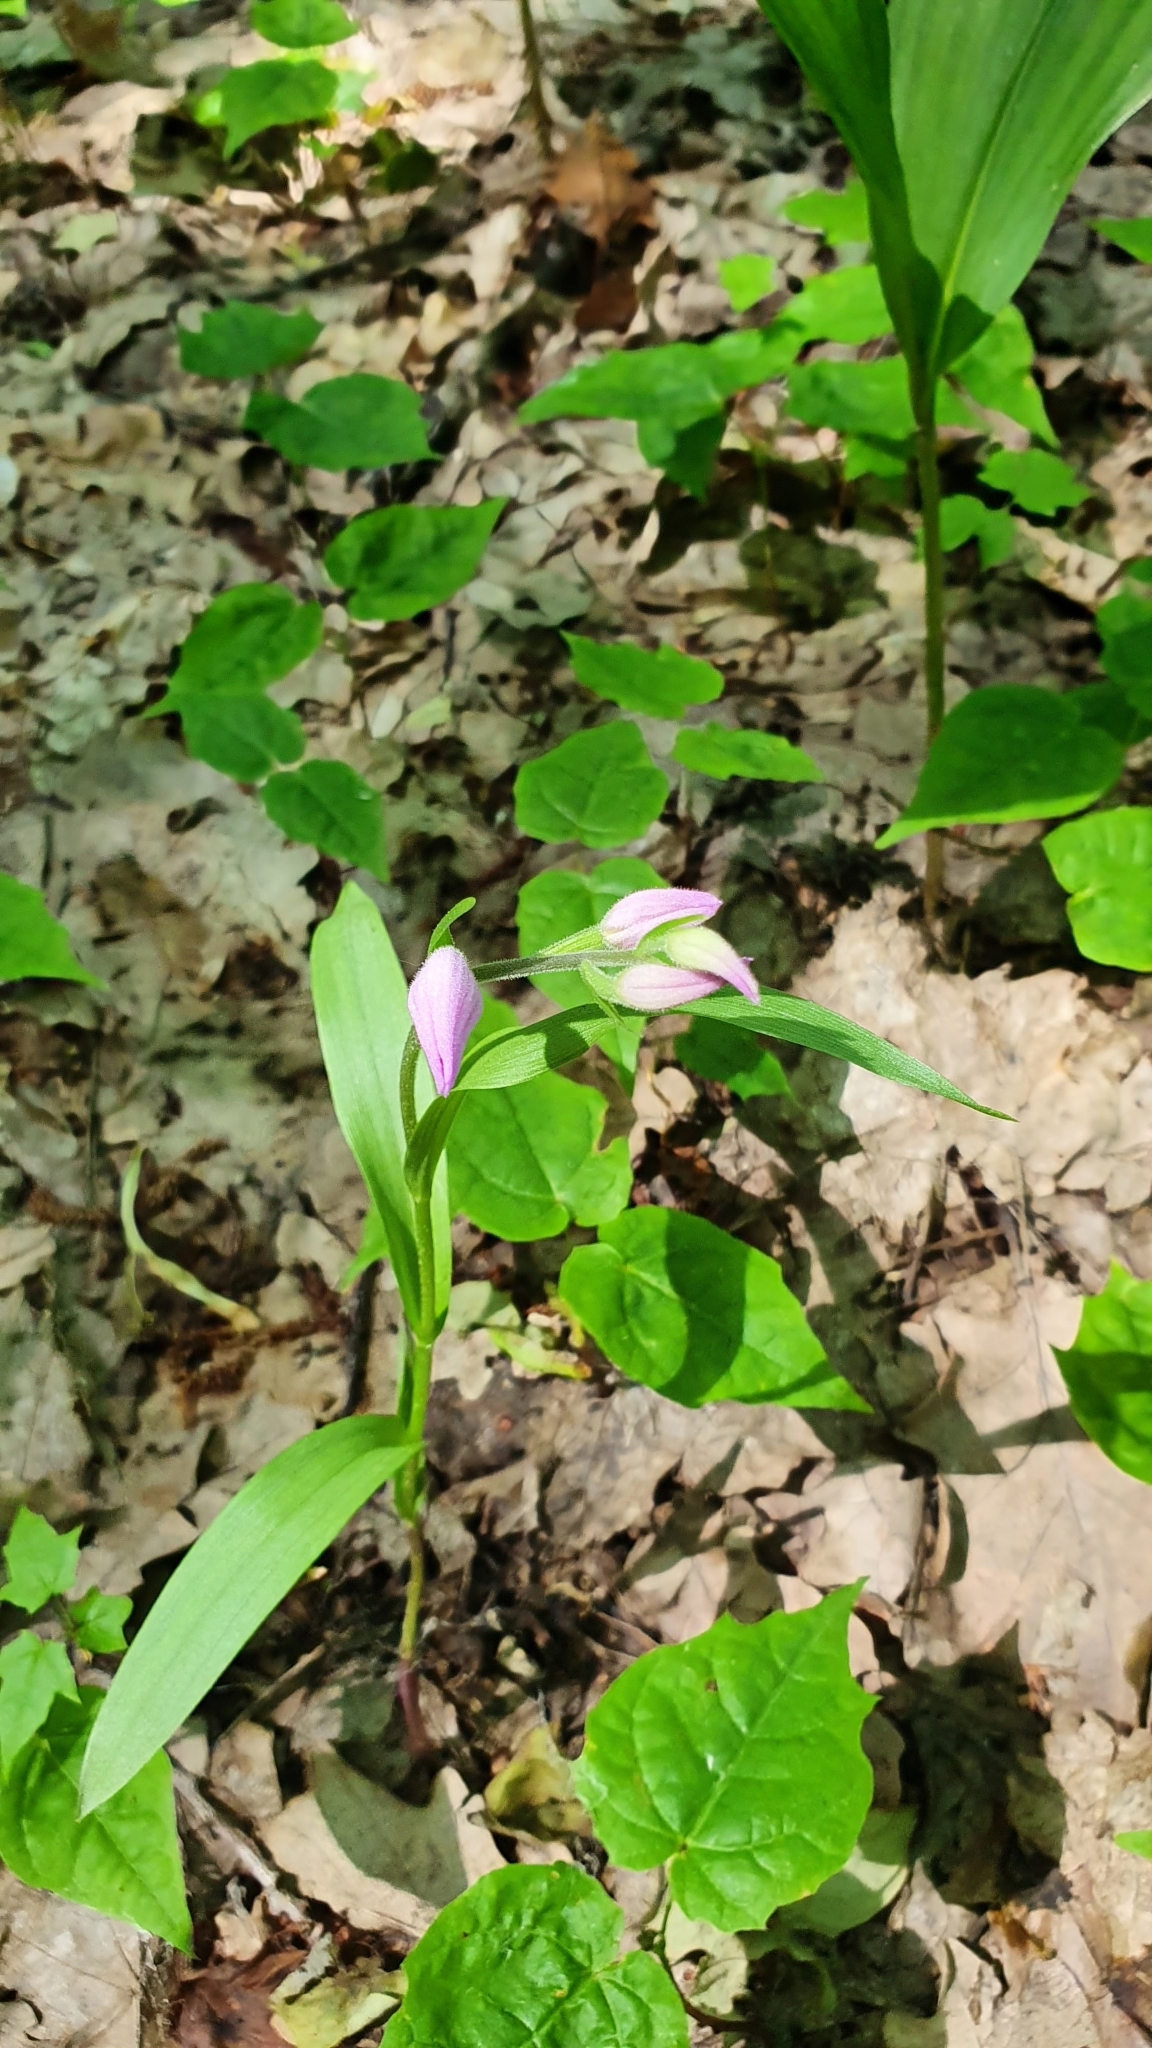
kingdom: Plantae
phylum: Tracheophyta
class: Liliopsida
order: Asparagales
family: Orchidaceae
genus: Cephalanthera
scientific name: Cephalanthera rubra
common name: Red helleborine
